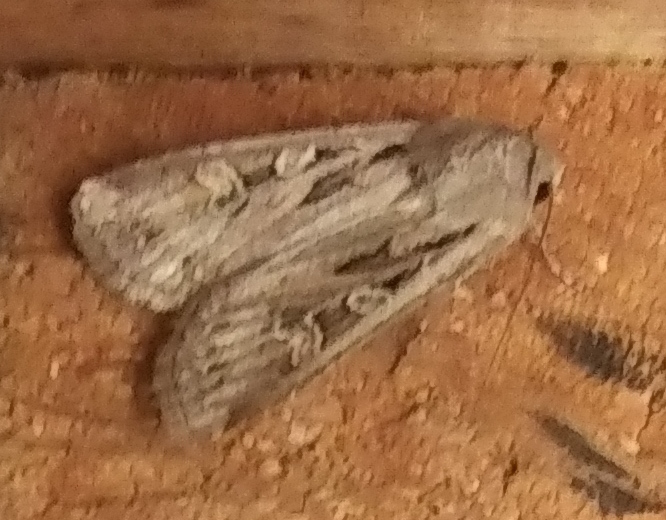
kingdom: Animalia
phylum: Arthropoda
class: Insecta
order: Lepidoptera
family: Noctuidae
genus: Euxoa
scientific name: Euxoa auxiliaris
